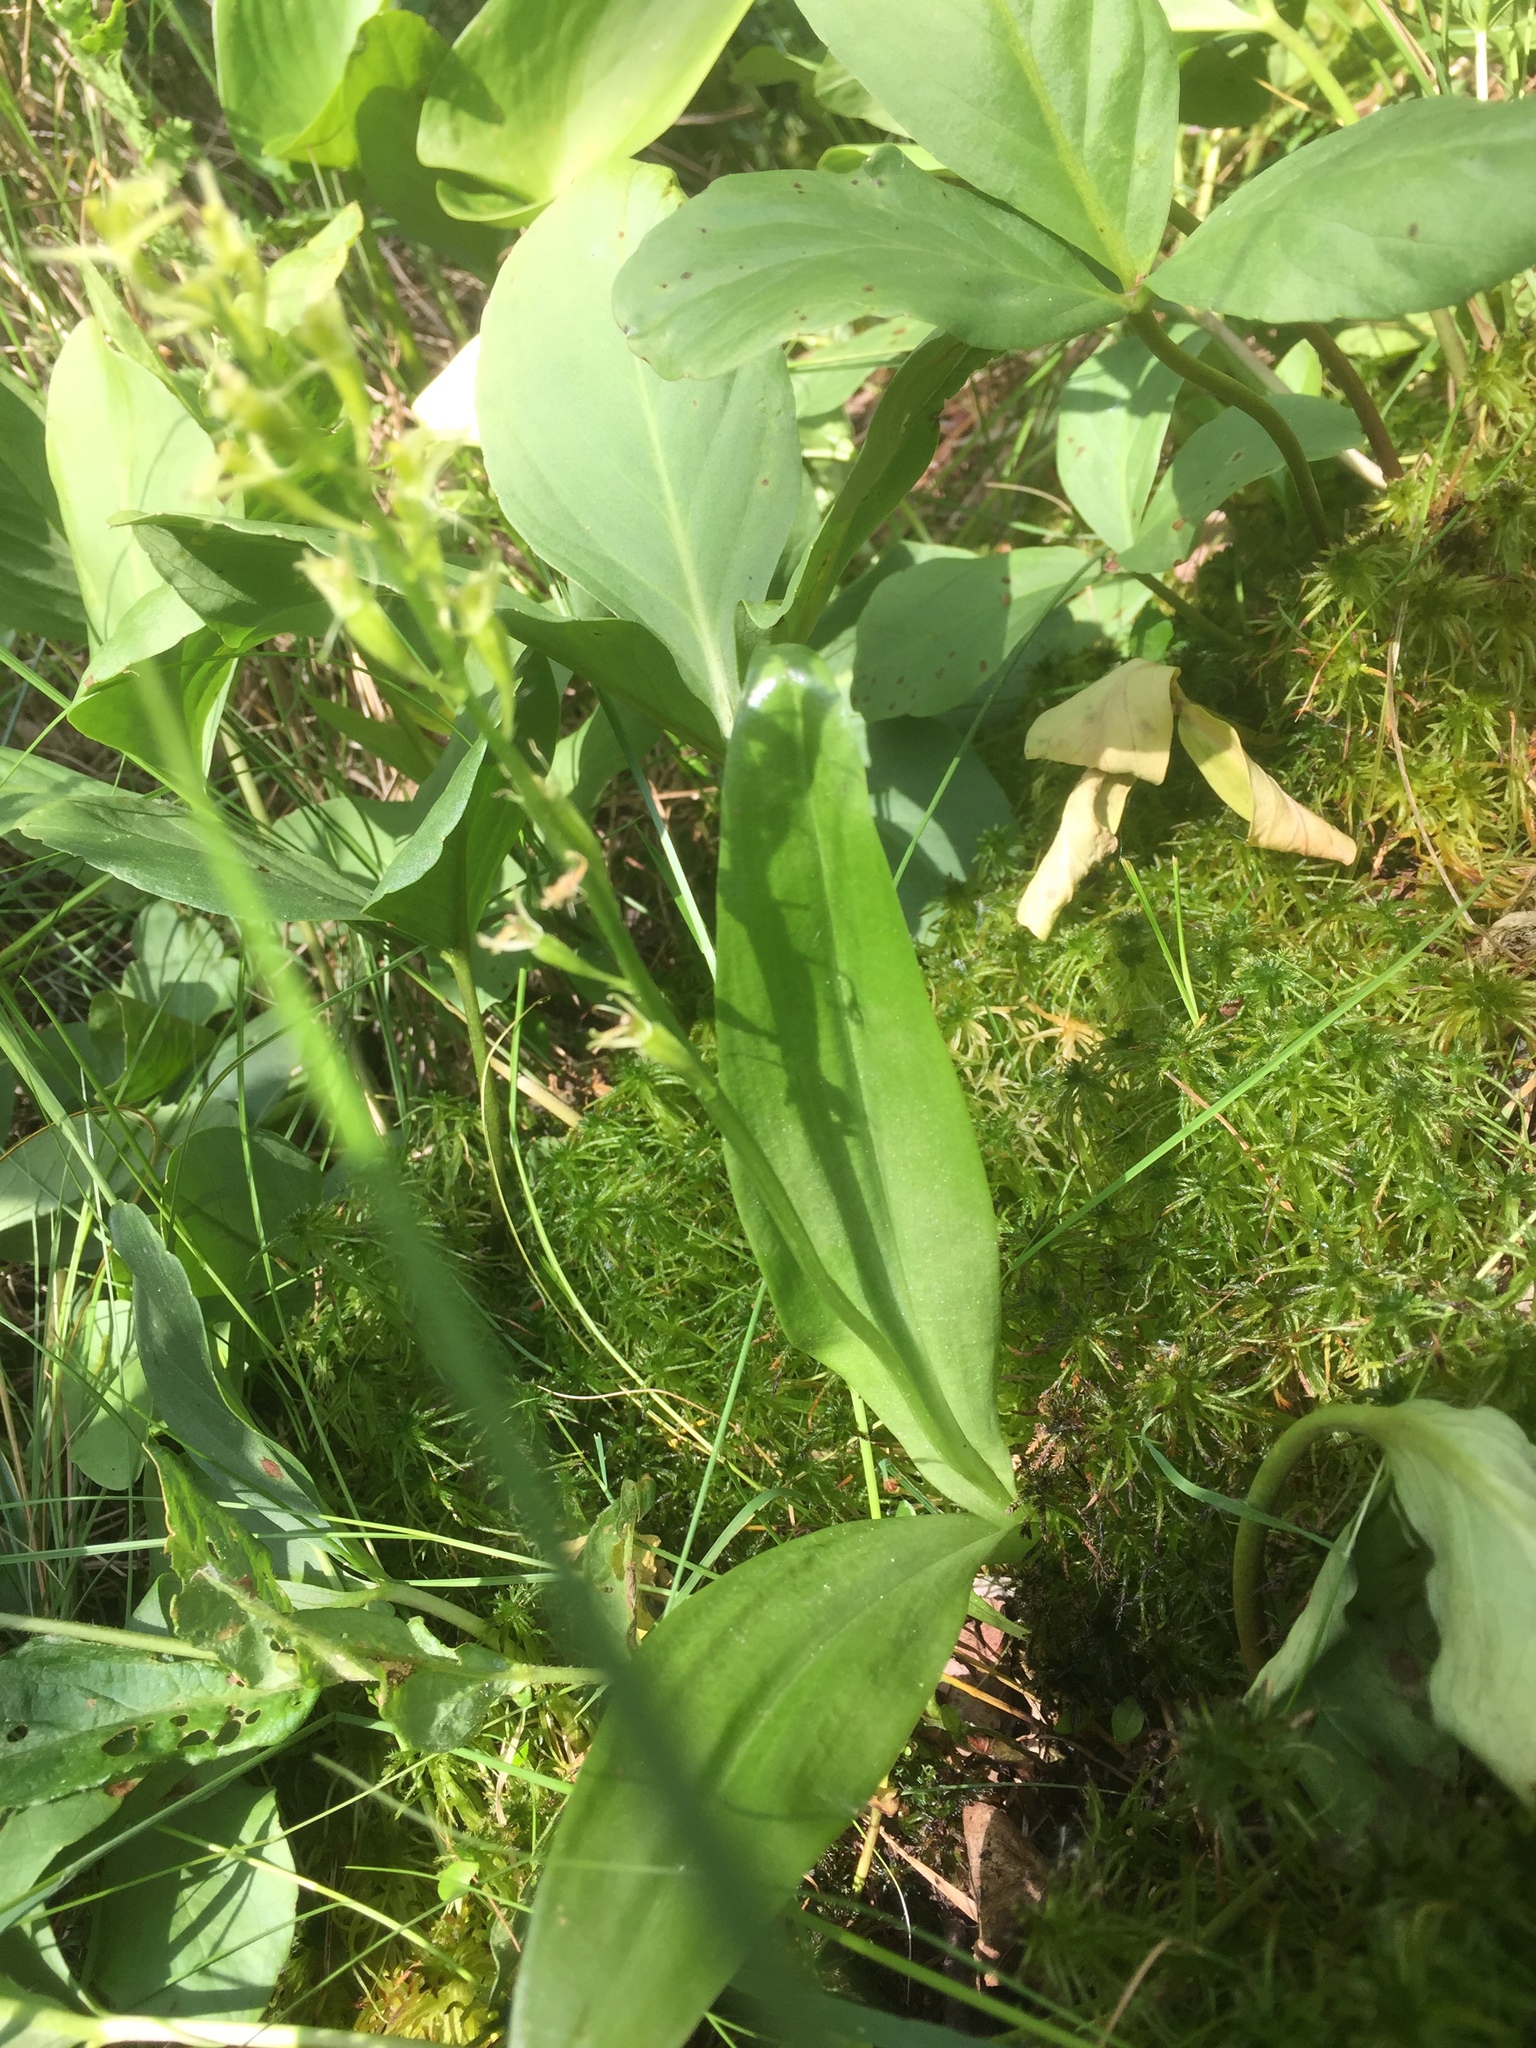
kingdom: Animalia
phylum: Arthropoda
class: Insecta
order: Coleoptera
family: Curculionidae
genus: Liparis
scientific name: Liparis loeselii
